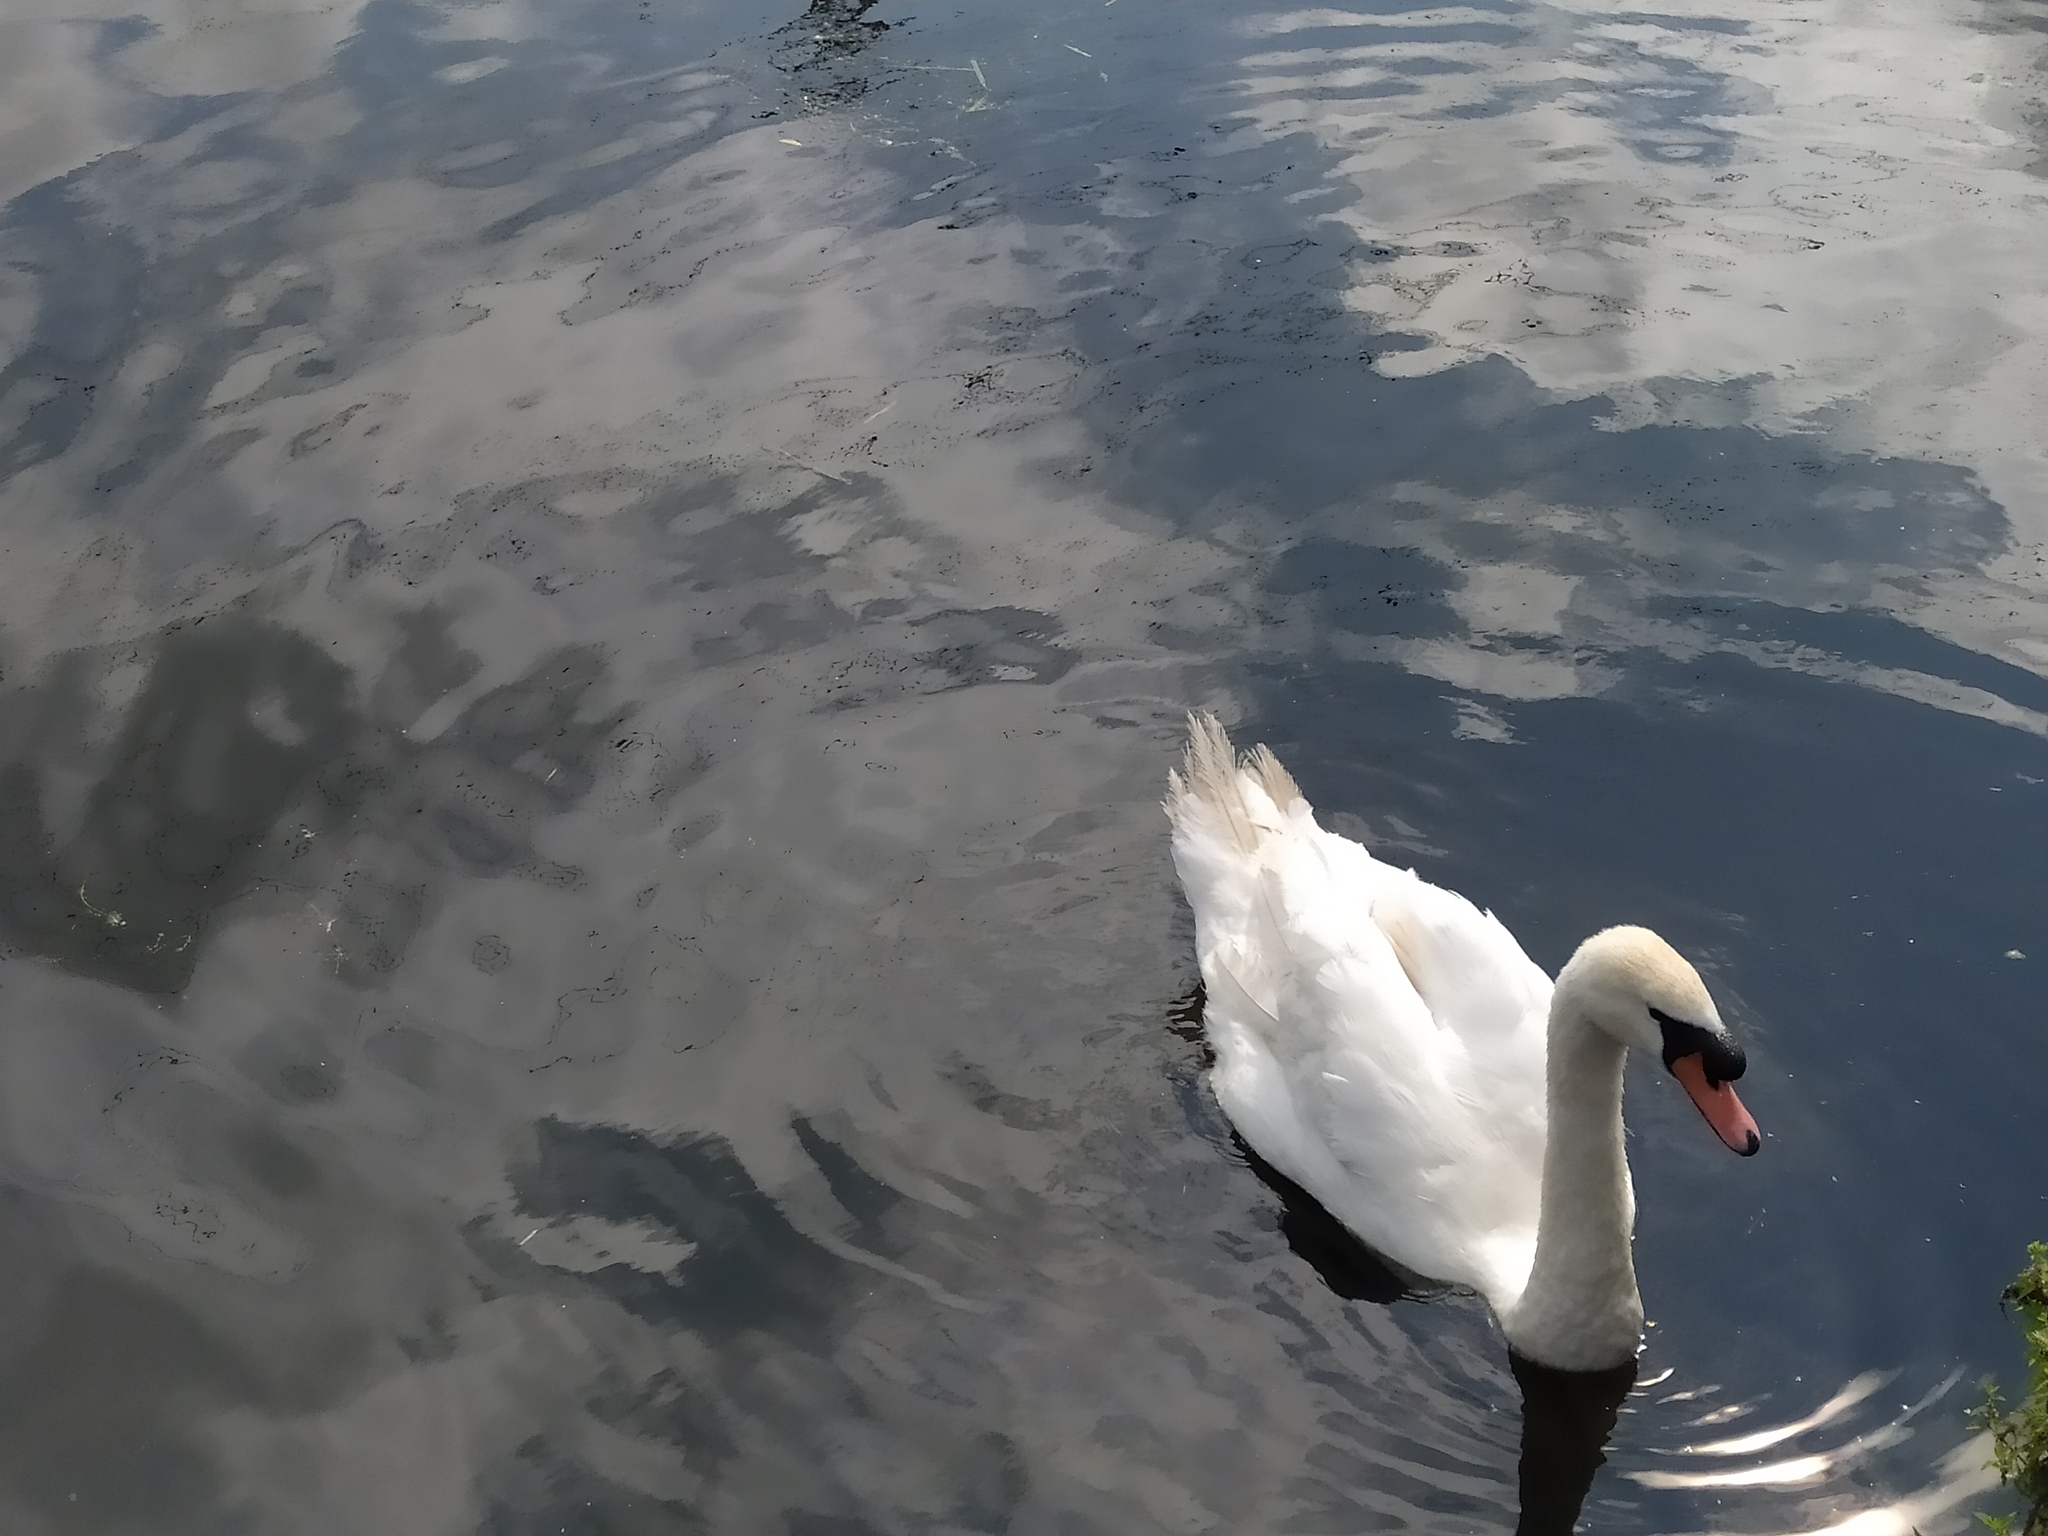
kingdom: Animalia
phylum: Chordata
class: Aves
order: Anseriformes
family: Anatidae
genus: Cygnus
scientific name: Cygnus olor
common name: Mute swan
